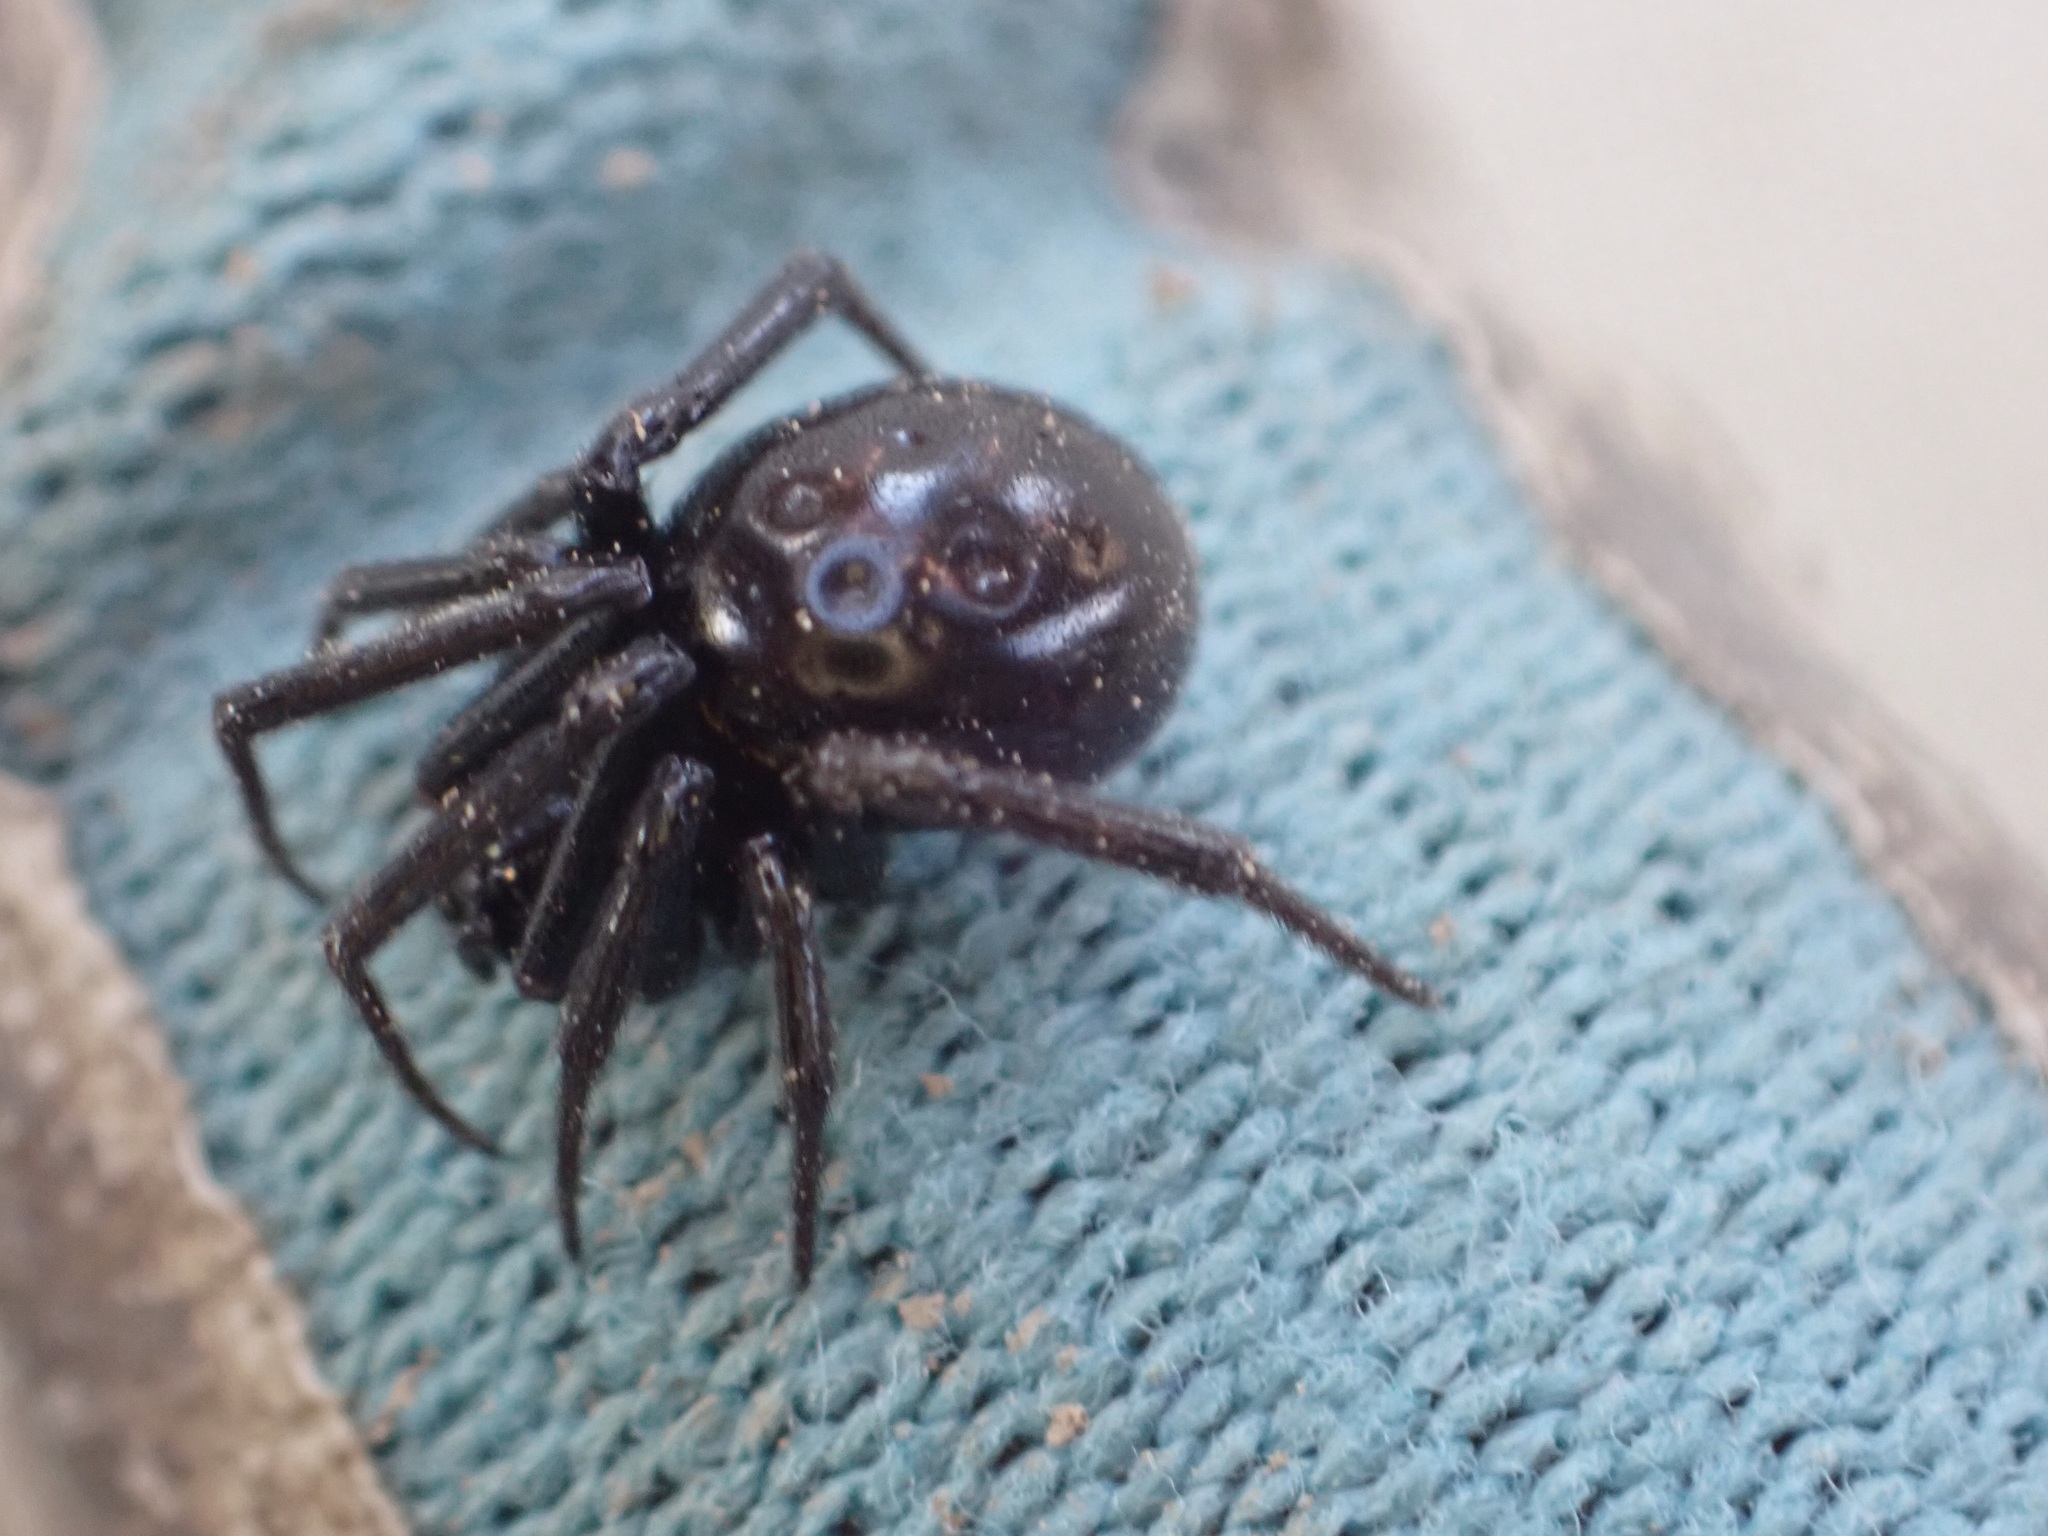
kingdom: Animalia
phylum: Arthropoda
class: Arachnida
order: Araneae
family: Theridiidae
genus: Steatoda
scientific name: Steatoda capensis
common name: Cobweb weaver
